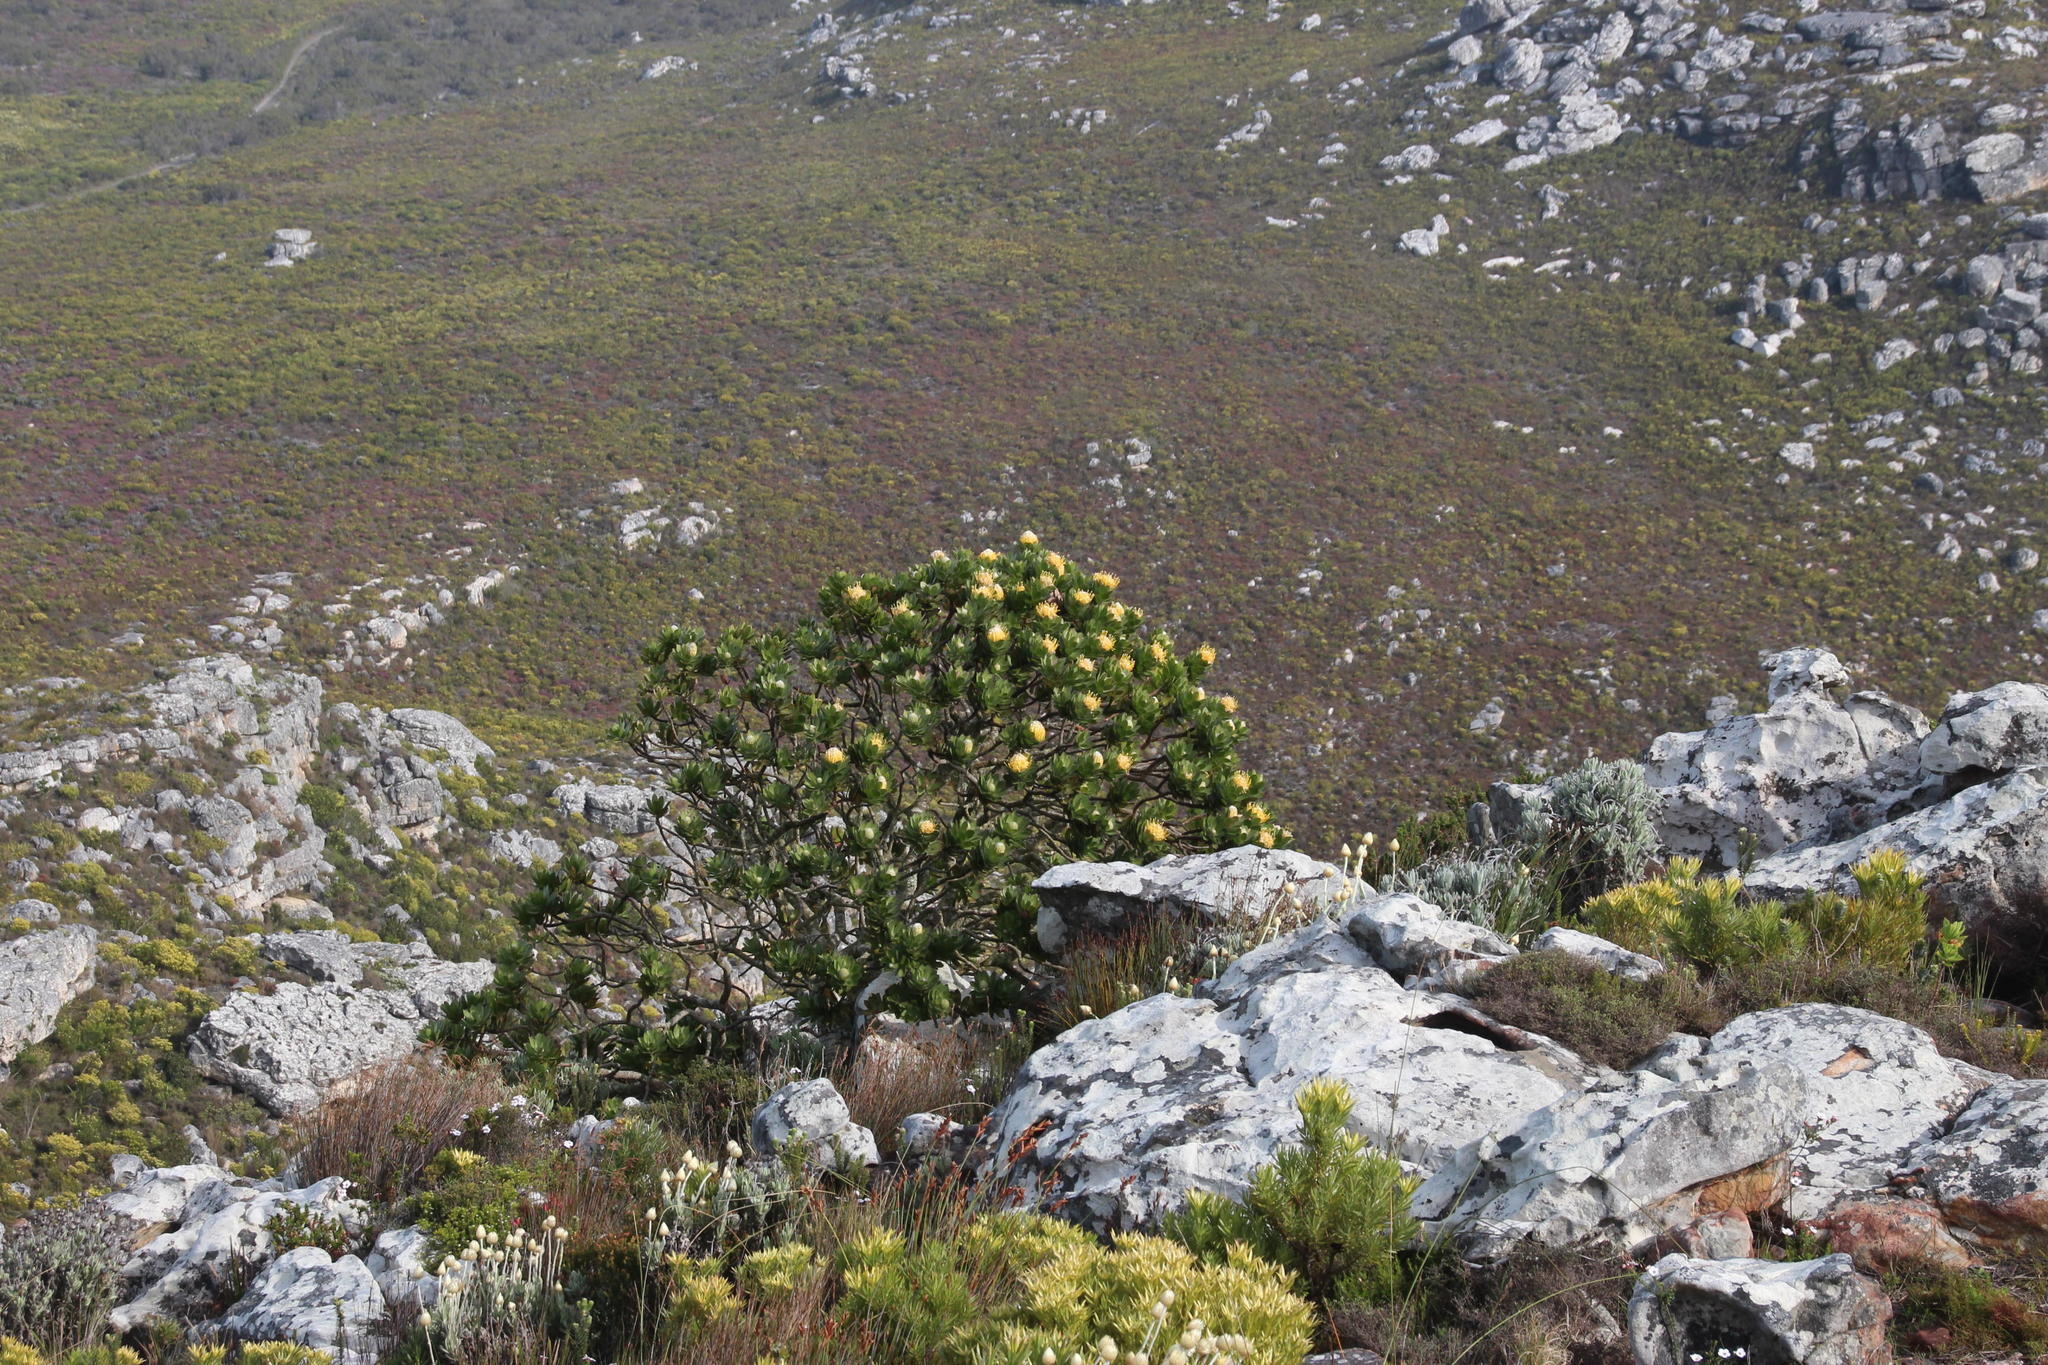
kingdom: Plantae
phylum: Tracheophyta
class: Magnoliopsida
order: Proteales
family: Proteaceae
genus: Leucospermum
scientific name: Leucospermum conocarpodendron
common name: Tree pincushion
